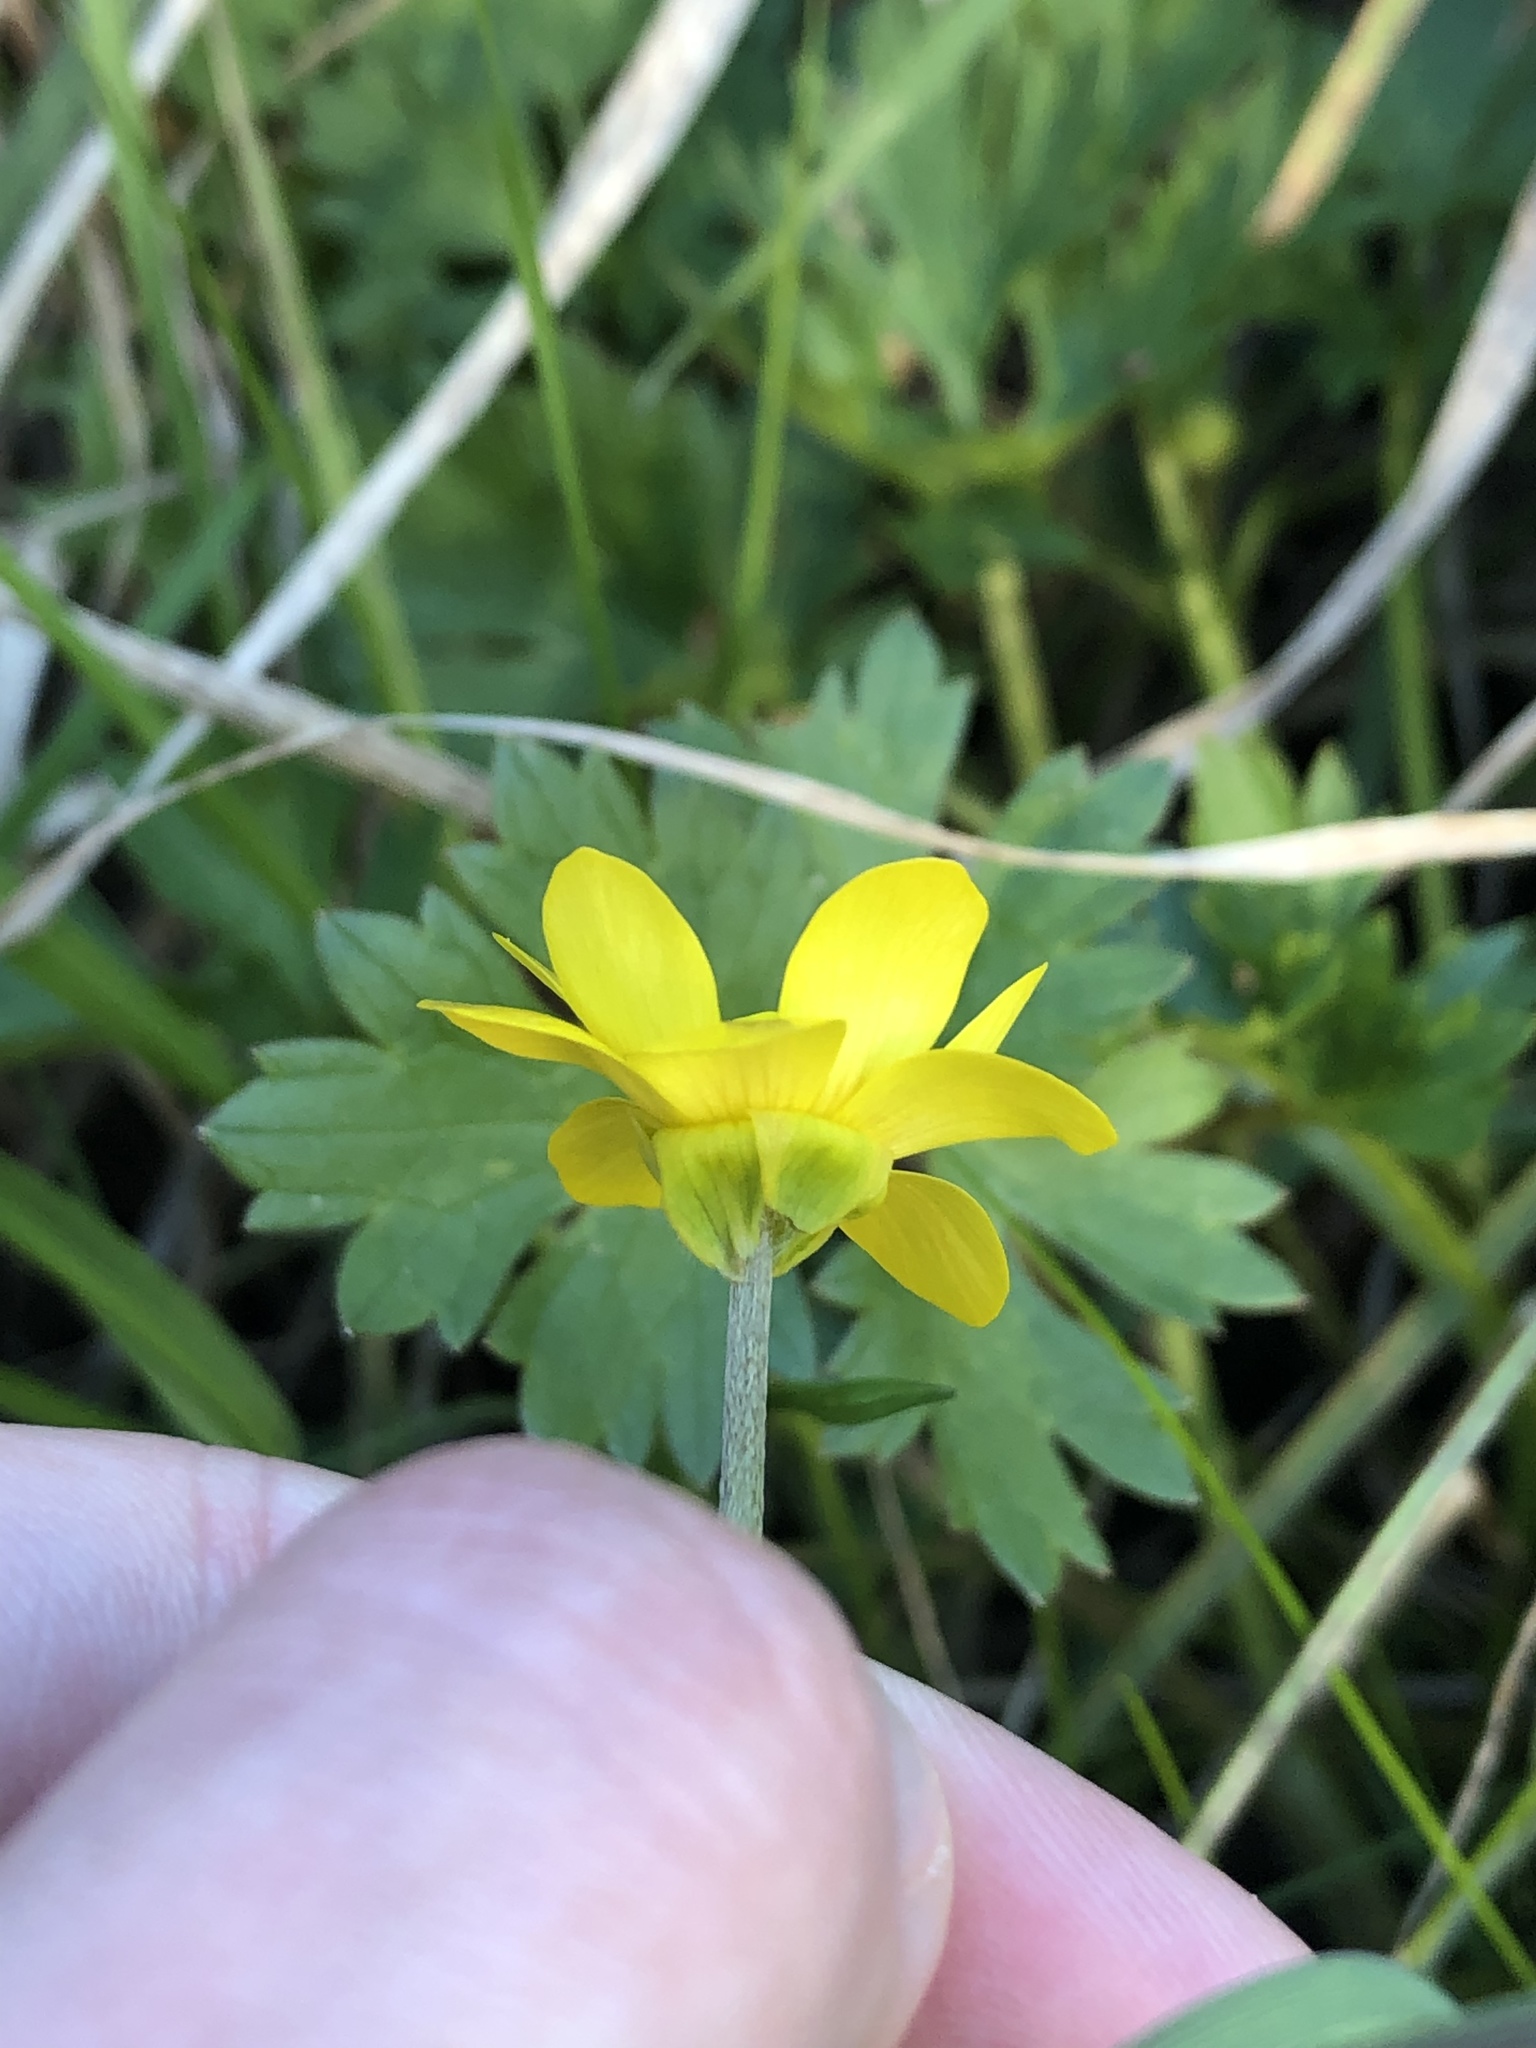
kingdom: Plantae
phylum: Tracheophyta
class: Magnoliopsida
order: Ranunculales
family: Ranunculaceae
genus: Ranunculus
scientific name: Ranunculus repens
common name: Creeping buttercup
